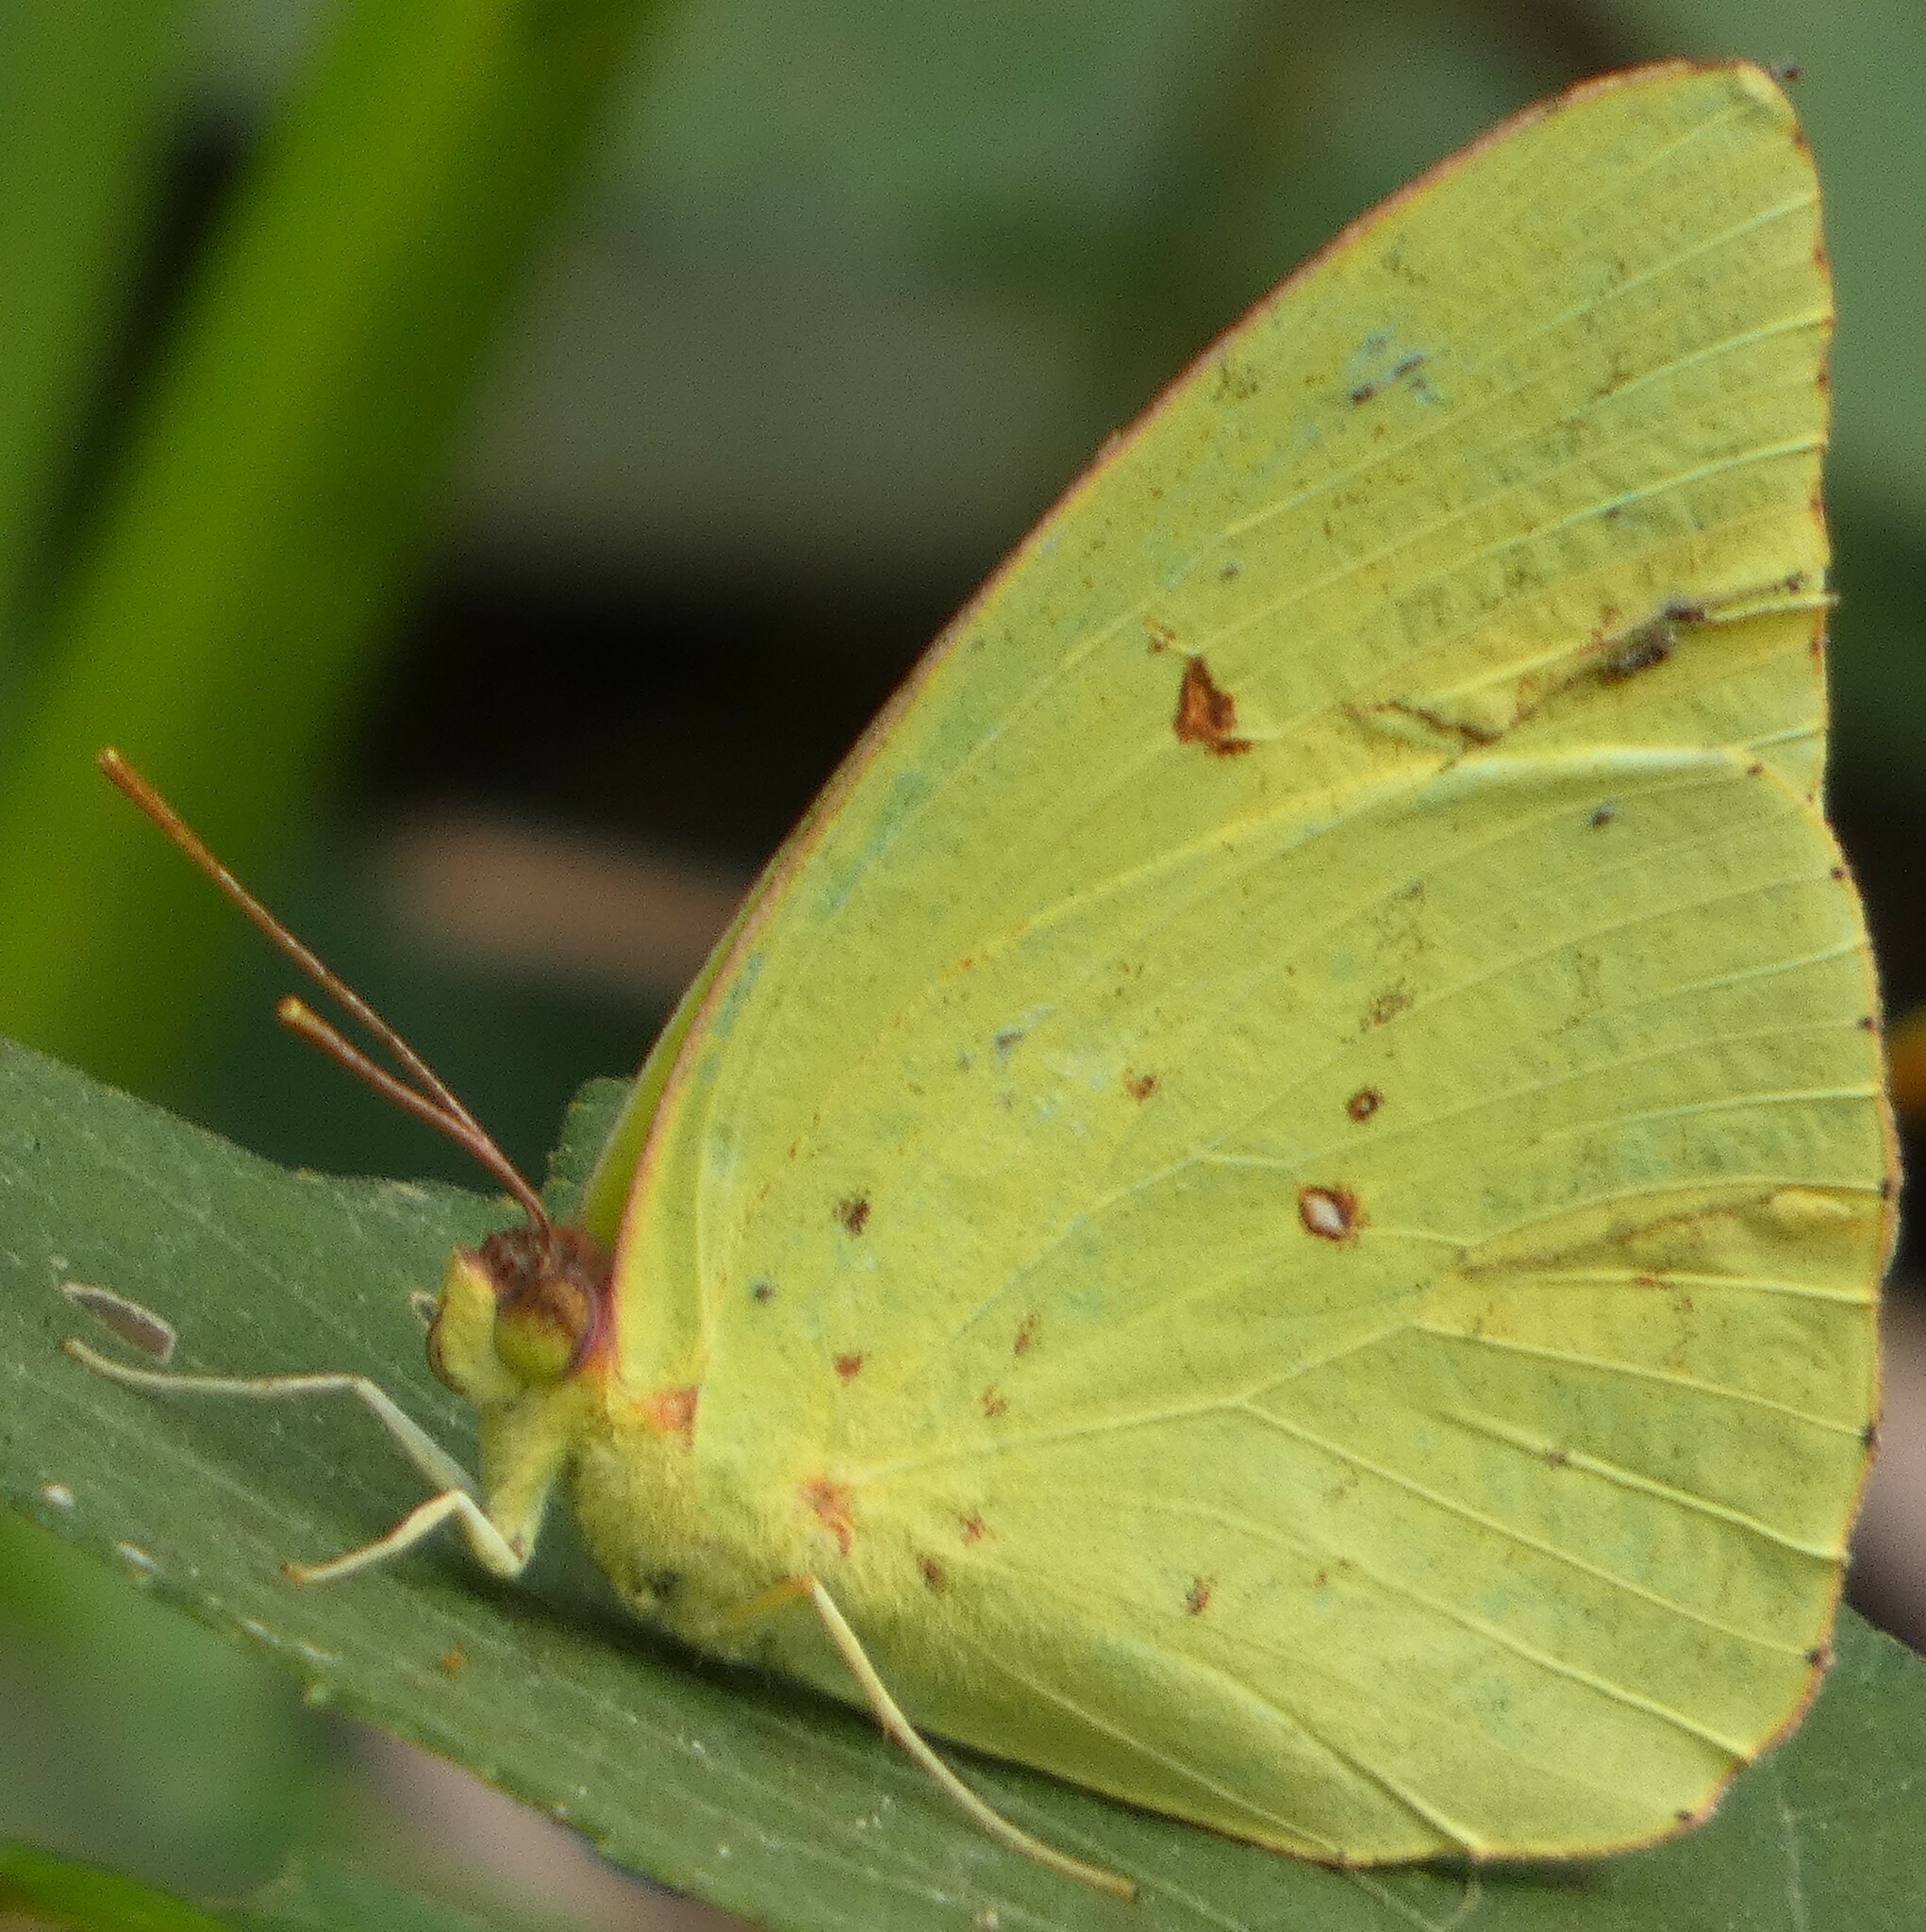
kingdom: Animalia
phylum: Arthropoda
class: Insecta
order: Lepidoptera
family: Pieridae
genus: Phoebis
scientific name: Phoebis sennae
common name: Cloudless sulphur
